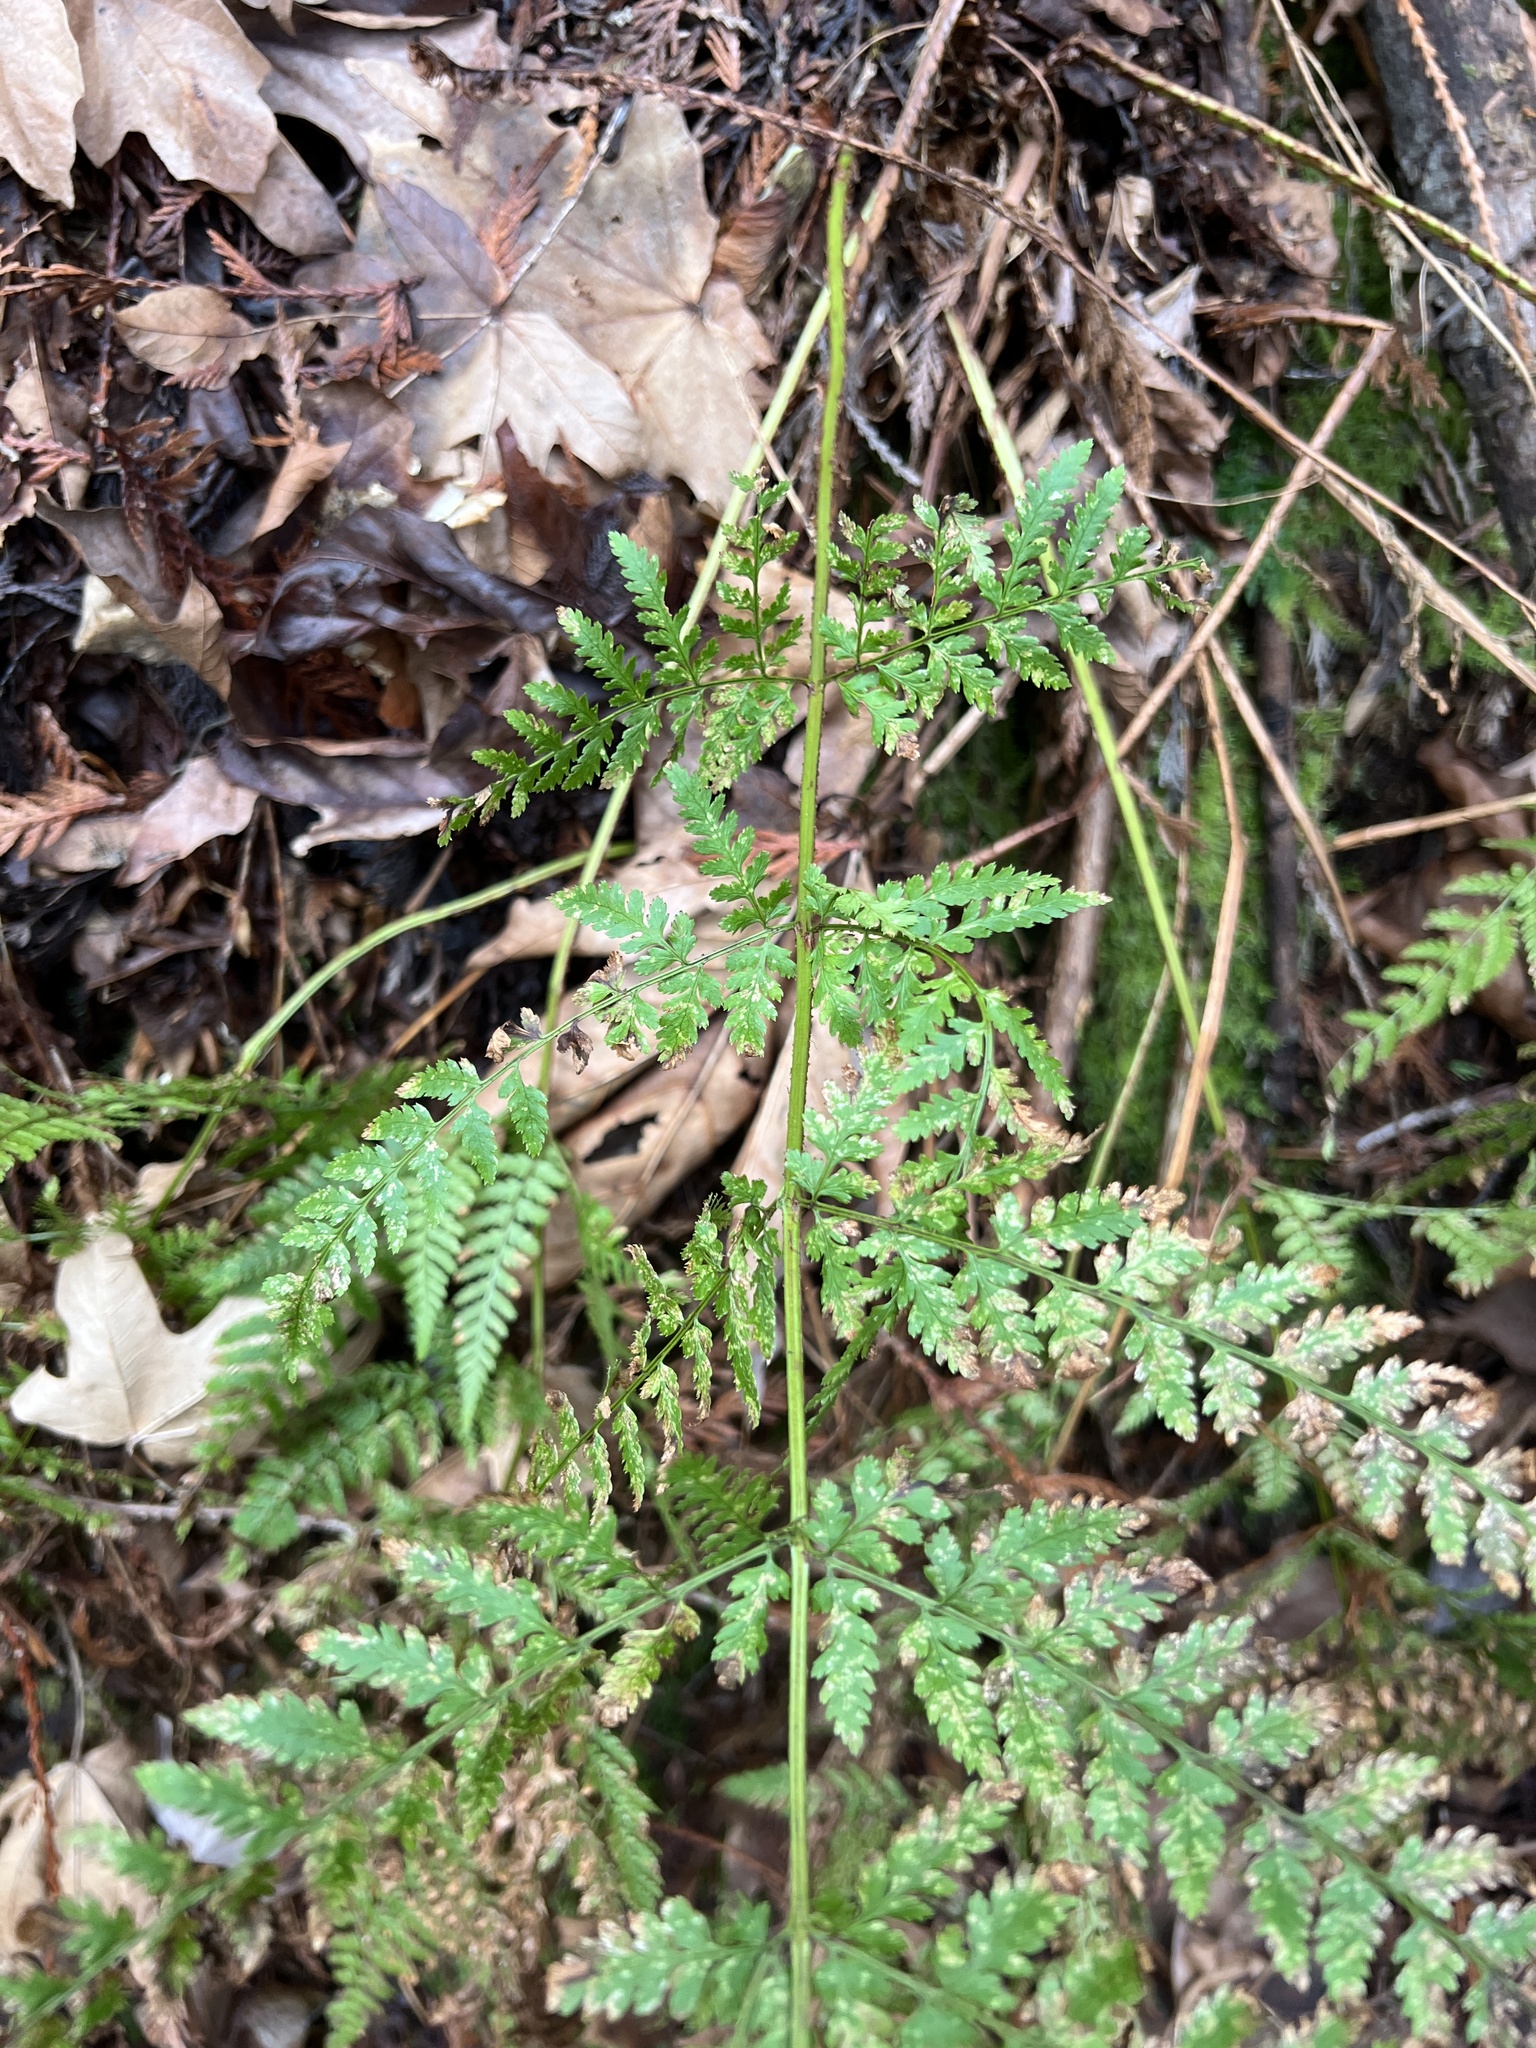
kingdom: Plantae
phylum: Tracheophyta
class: Polypodiopsida
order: Polypodiales
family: Dryopteridaceae
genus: Dryopteris
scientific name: Dryopteris expansa
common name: Northern buckler fern
